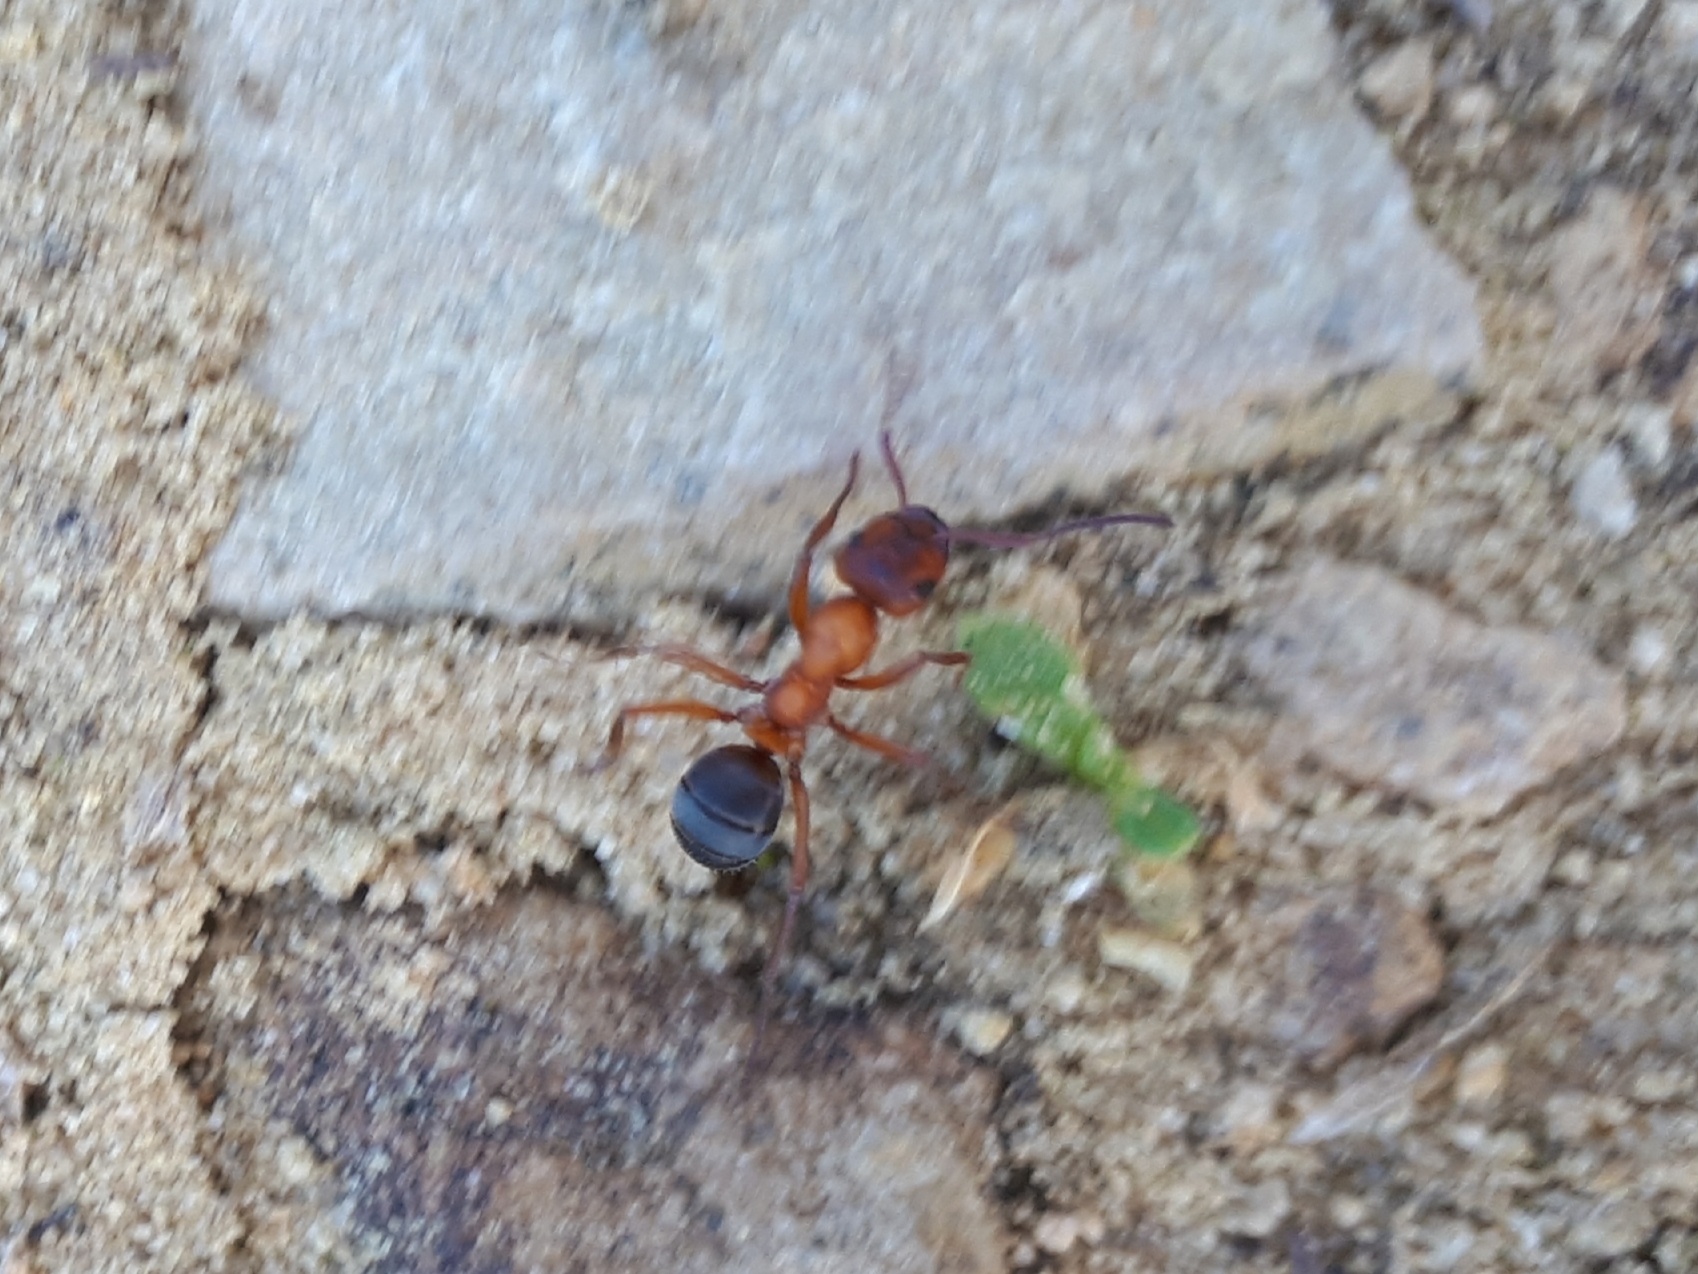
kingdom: Animalia
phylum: Arthropoda
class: Insecta
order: Hymenoptera
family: Formicidae
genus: Formica
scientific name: Formica sanguinea
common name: Blood-red ant
